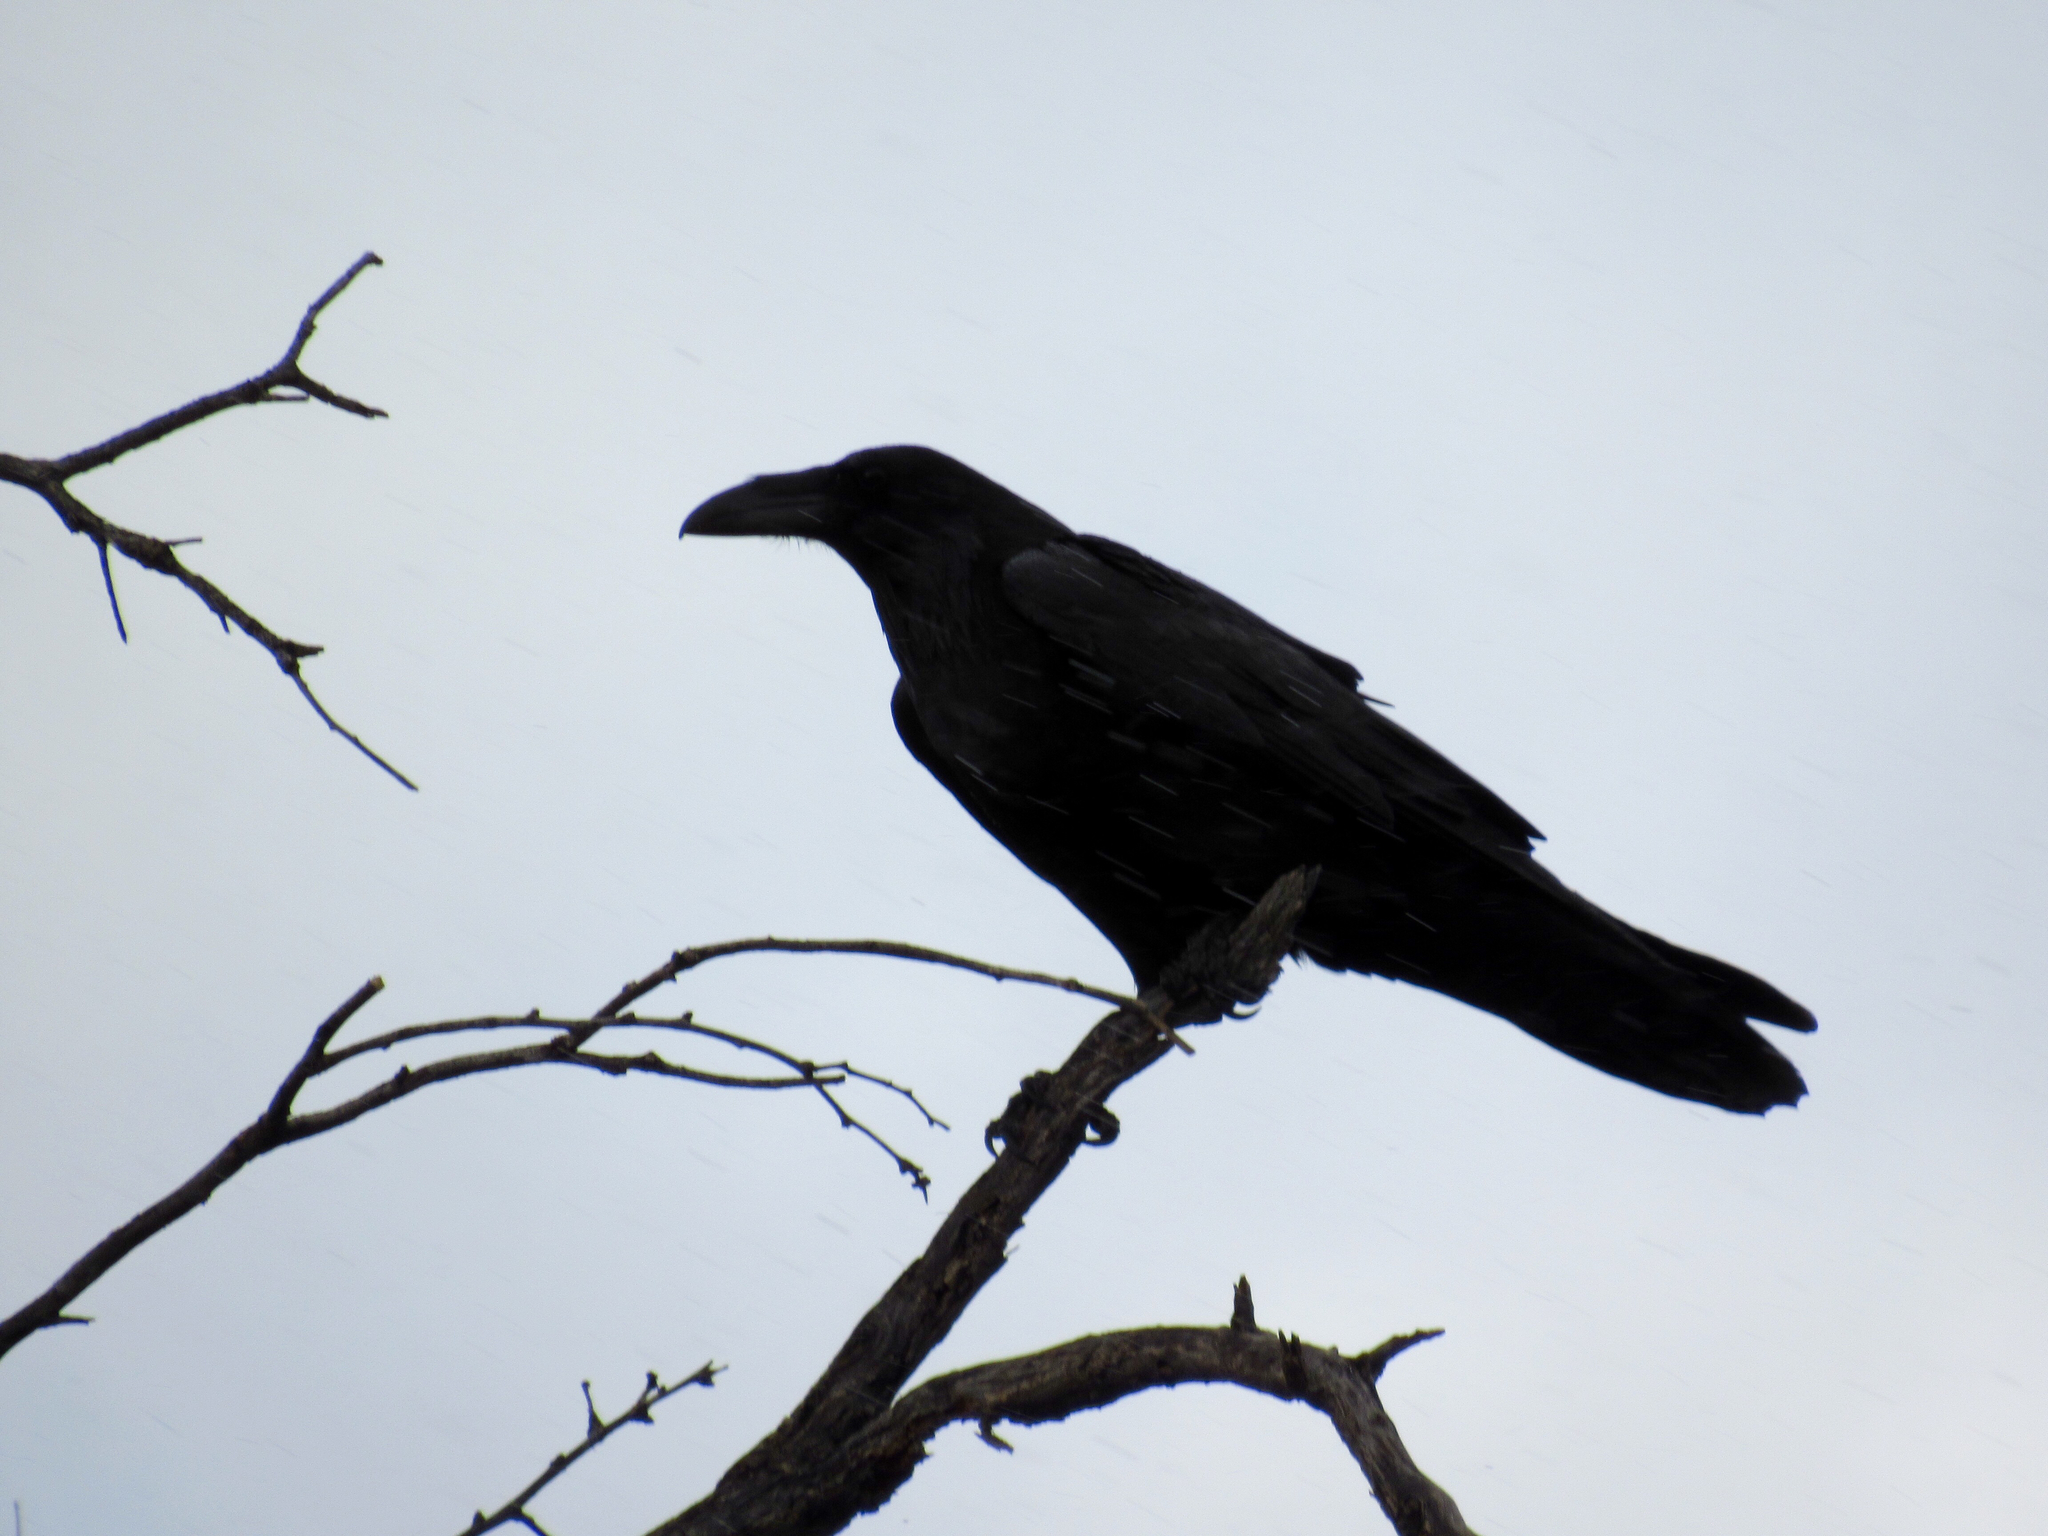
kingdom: Animalia
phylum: Chordata
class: Aves
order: Passeriformes
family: Corvidae
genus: Corvus
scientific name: Corvus corax
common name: Common raven
